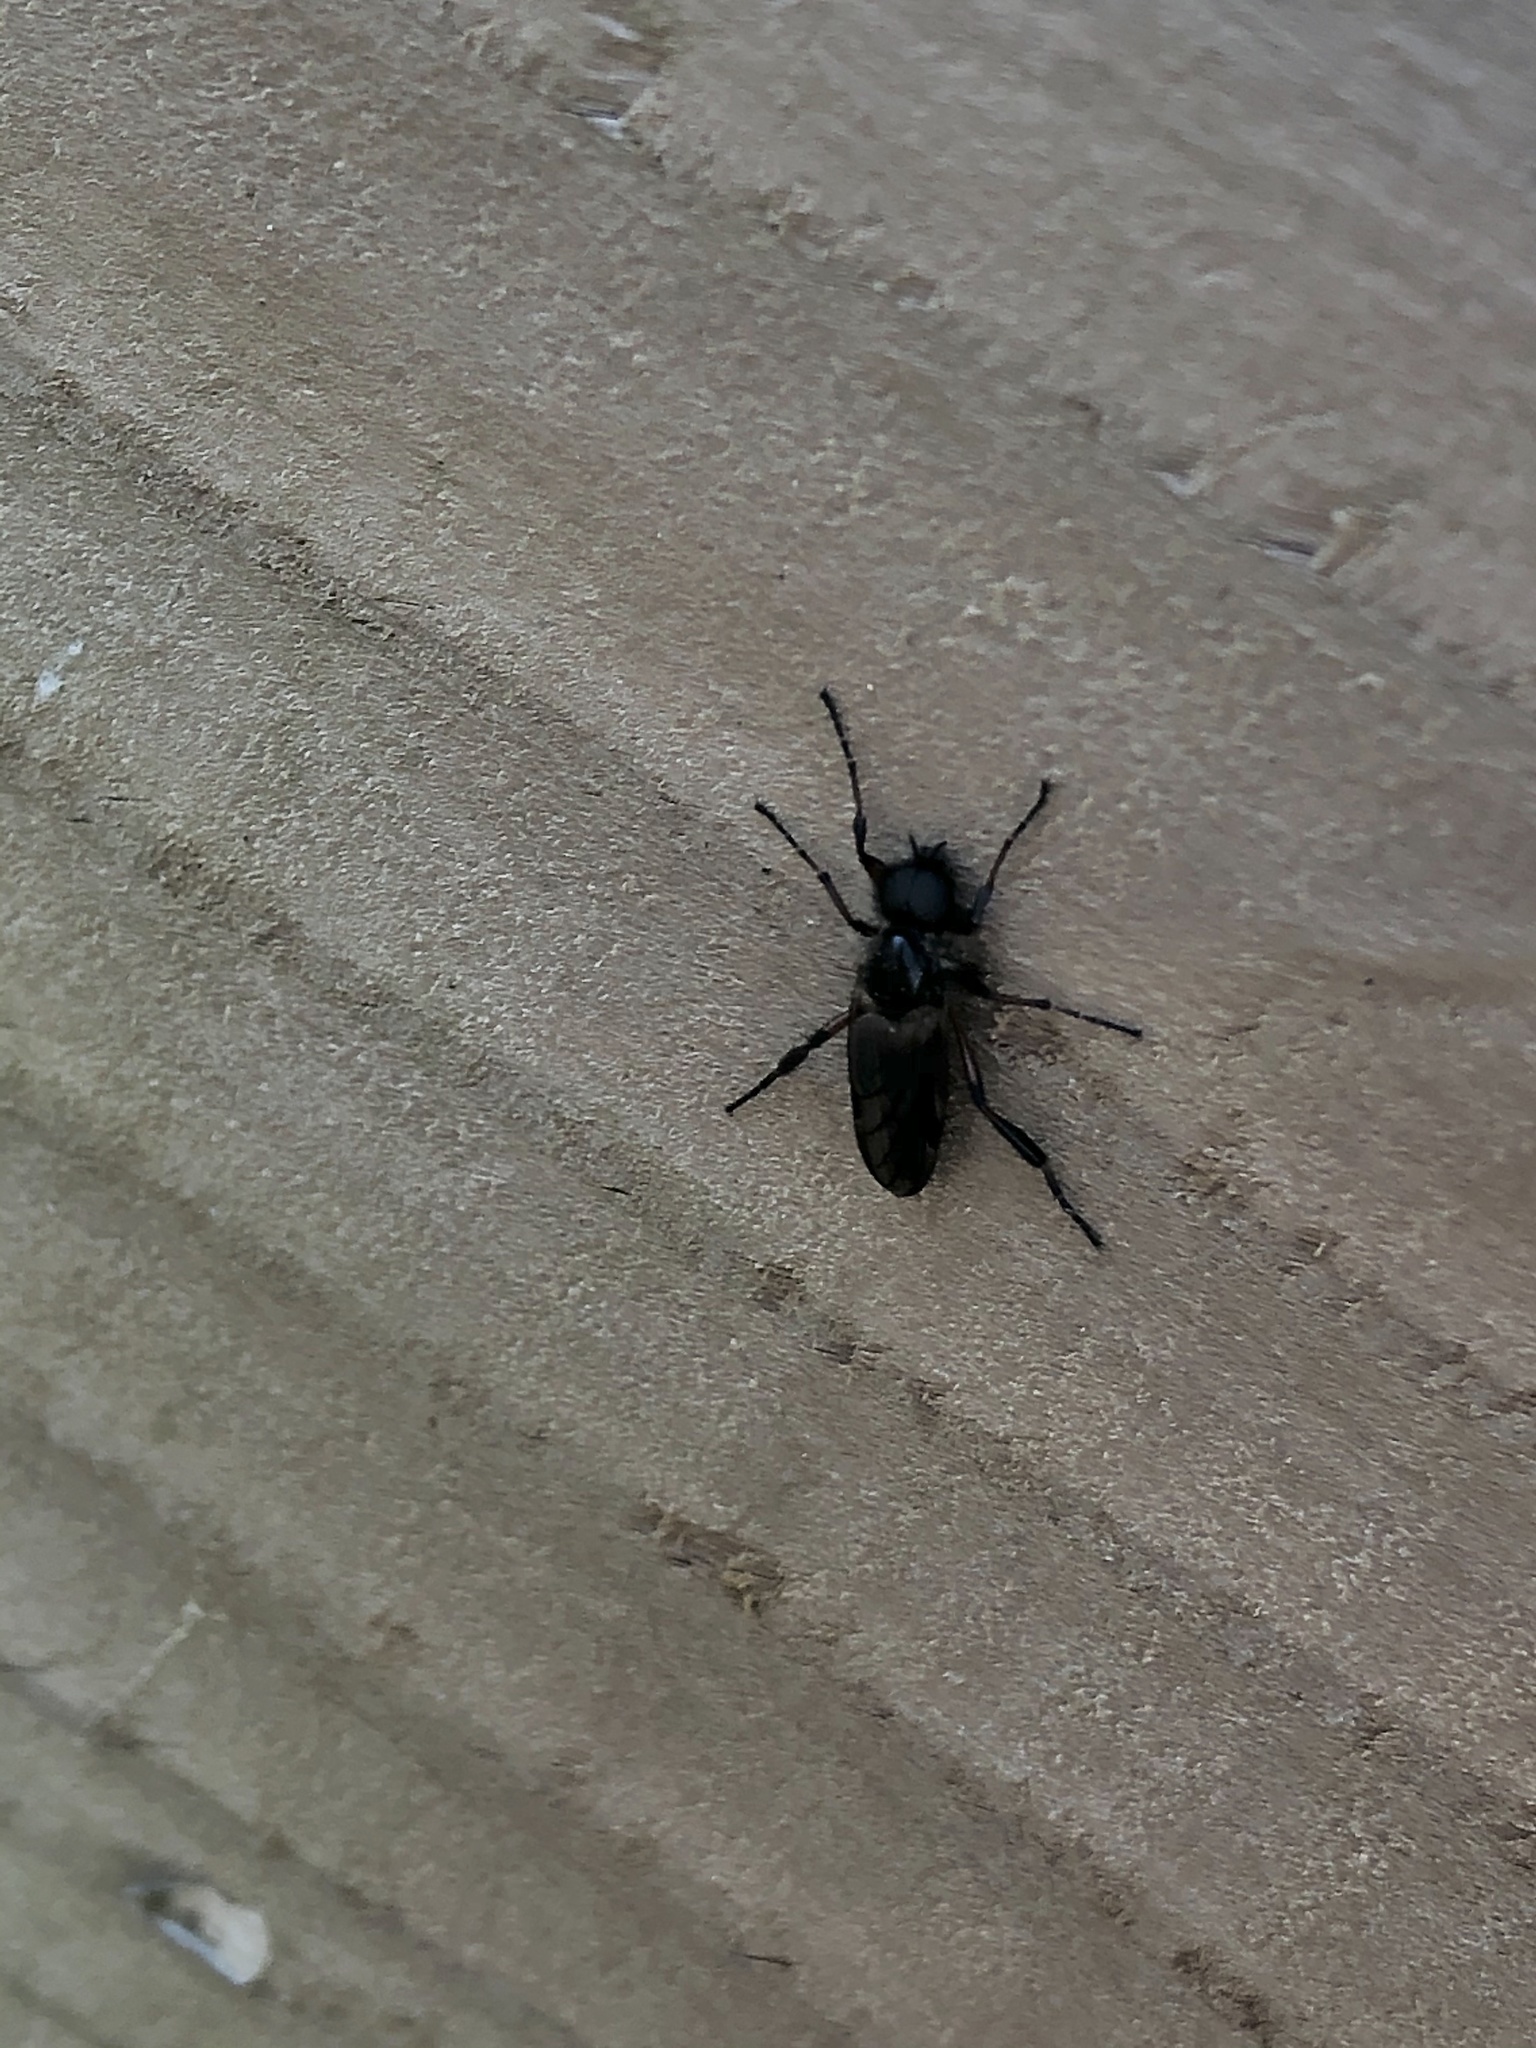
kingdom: Animalia
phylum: Arthropoda
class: Insecta
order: Diptera
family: Bibionidae
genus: Bibio
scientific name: Bibio
